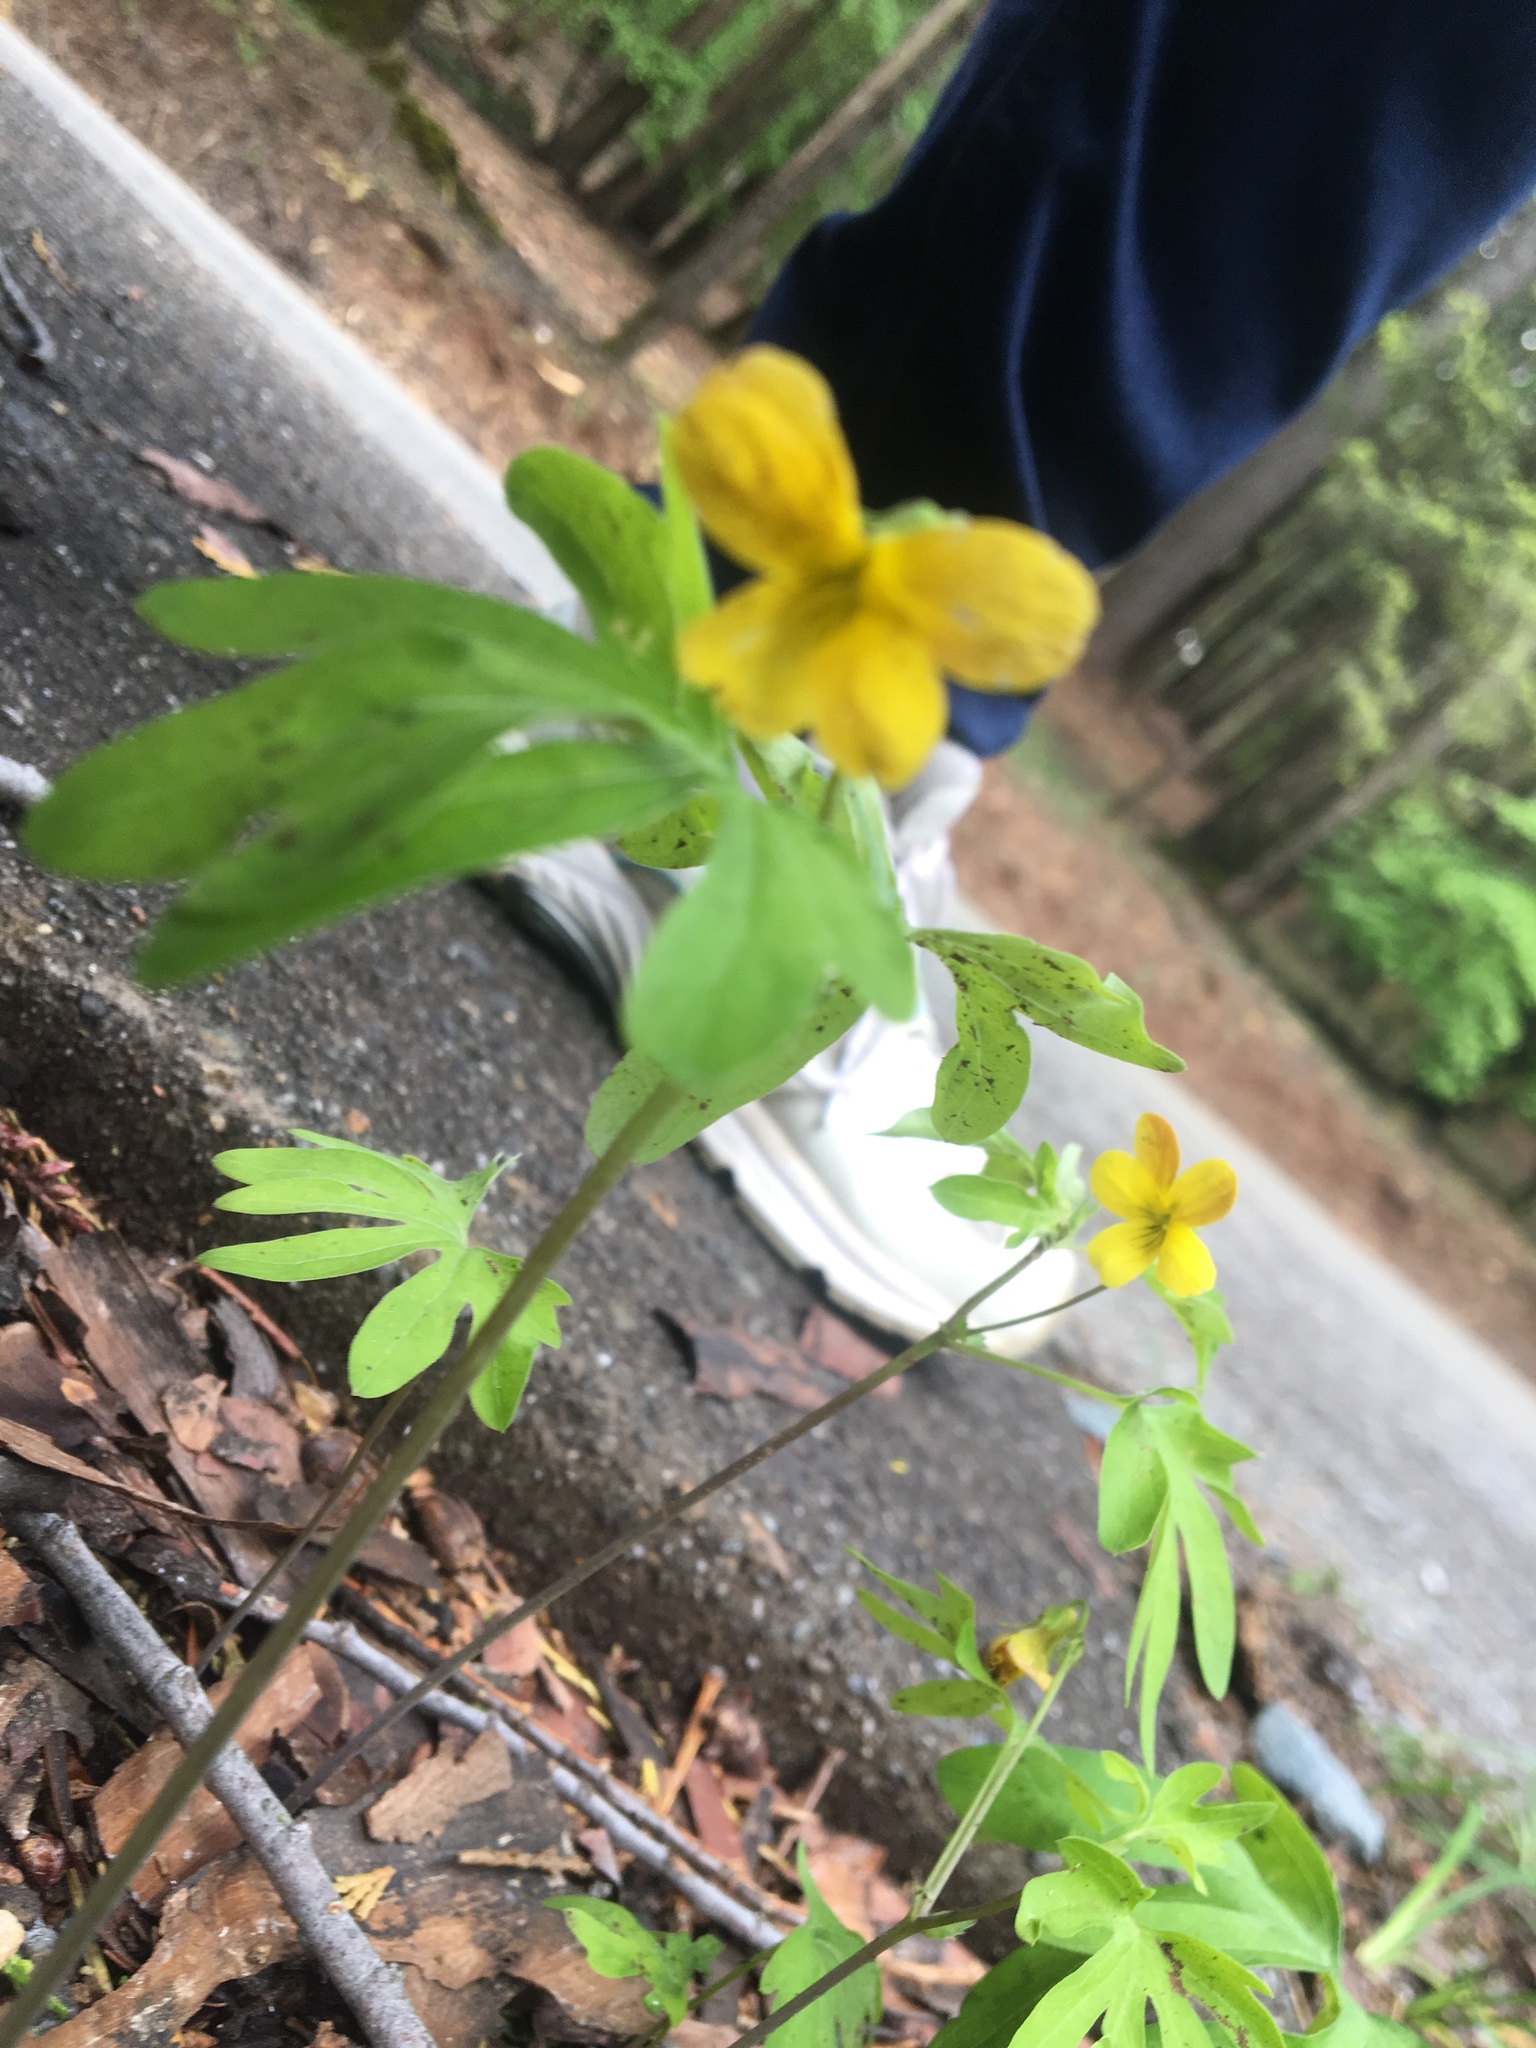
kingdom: Plantae
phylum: Tracheophyta
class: Magnoliopsida
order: Malpighiales
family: Violaceae
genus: Viola
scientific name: Viola lobata
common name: Pine violet
